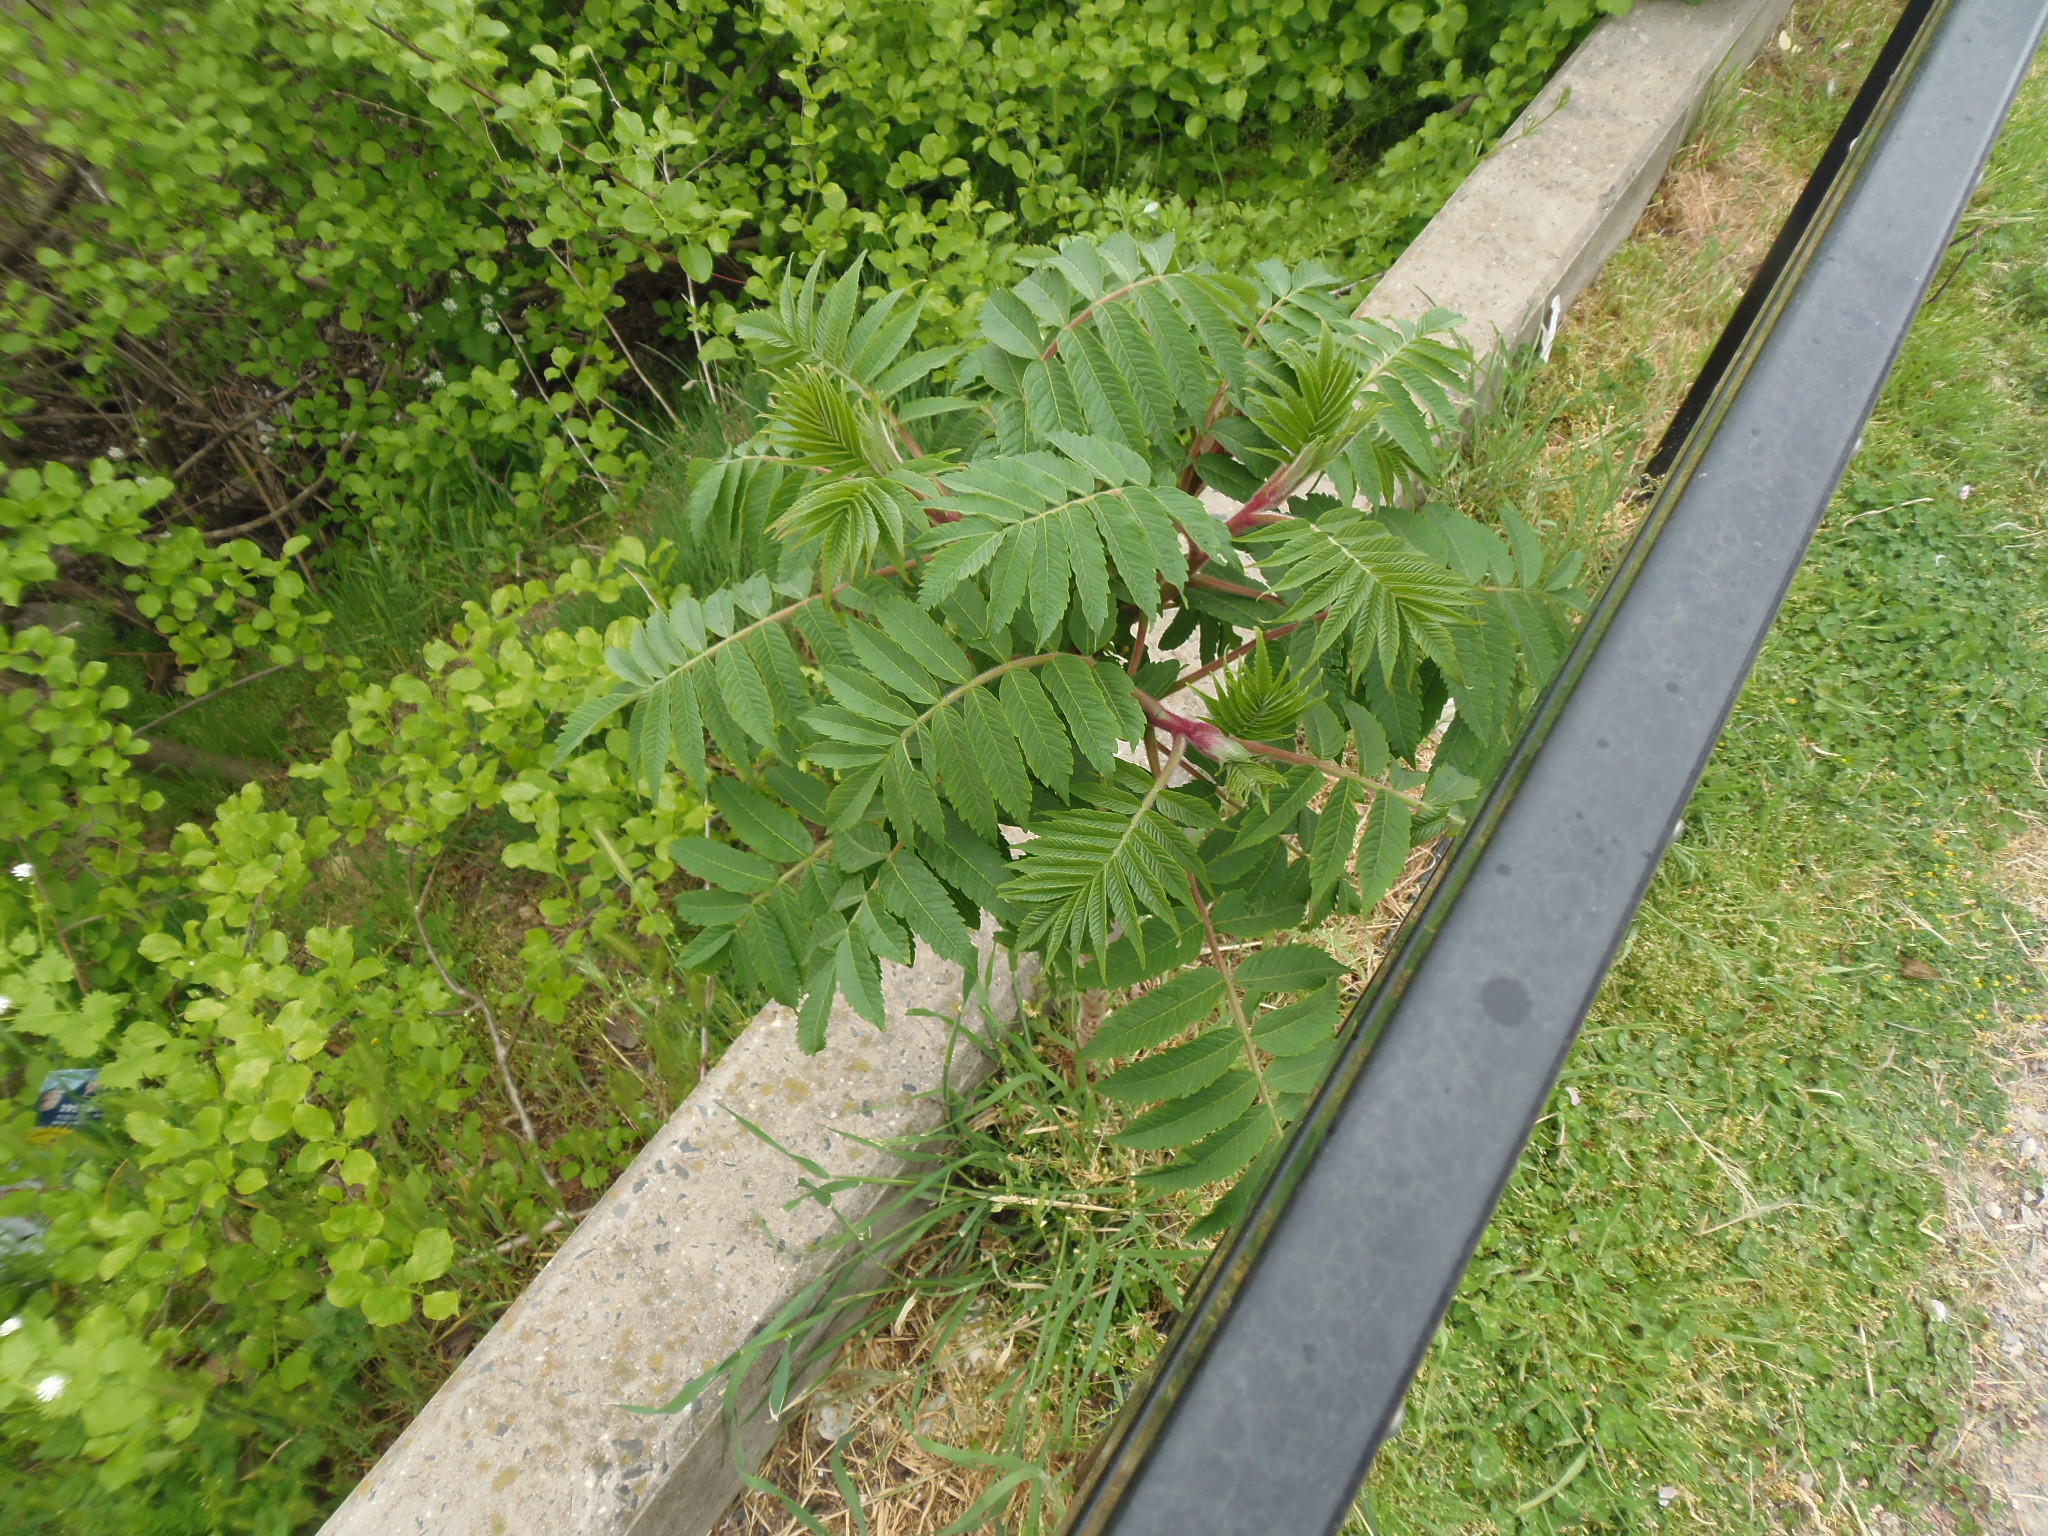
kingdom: Plantae
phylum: Tracheophyta
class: Magnoliopsida
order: Sapindales
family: Anacardiaceae
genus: Rhus
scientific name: Rhus typhina
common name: Staghorn sumac
